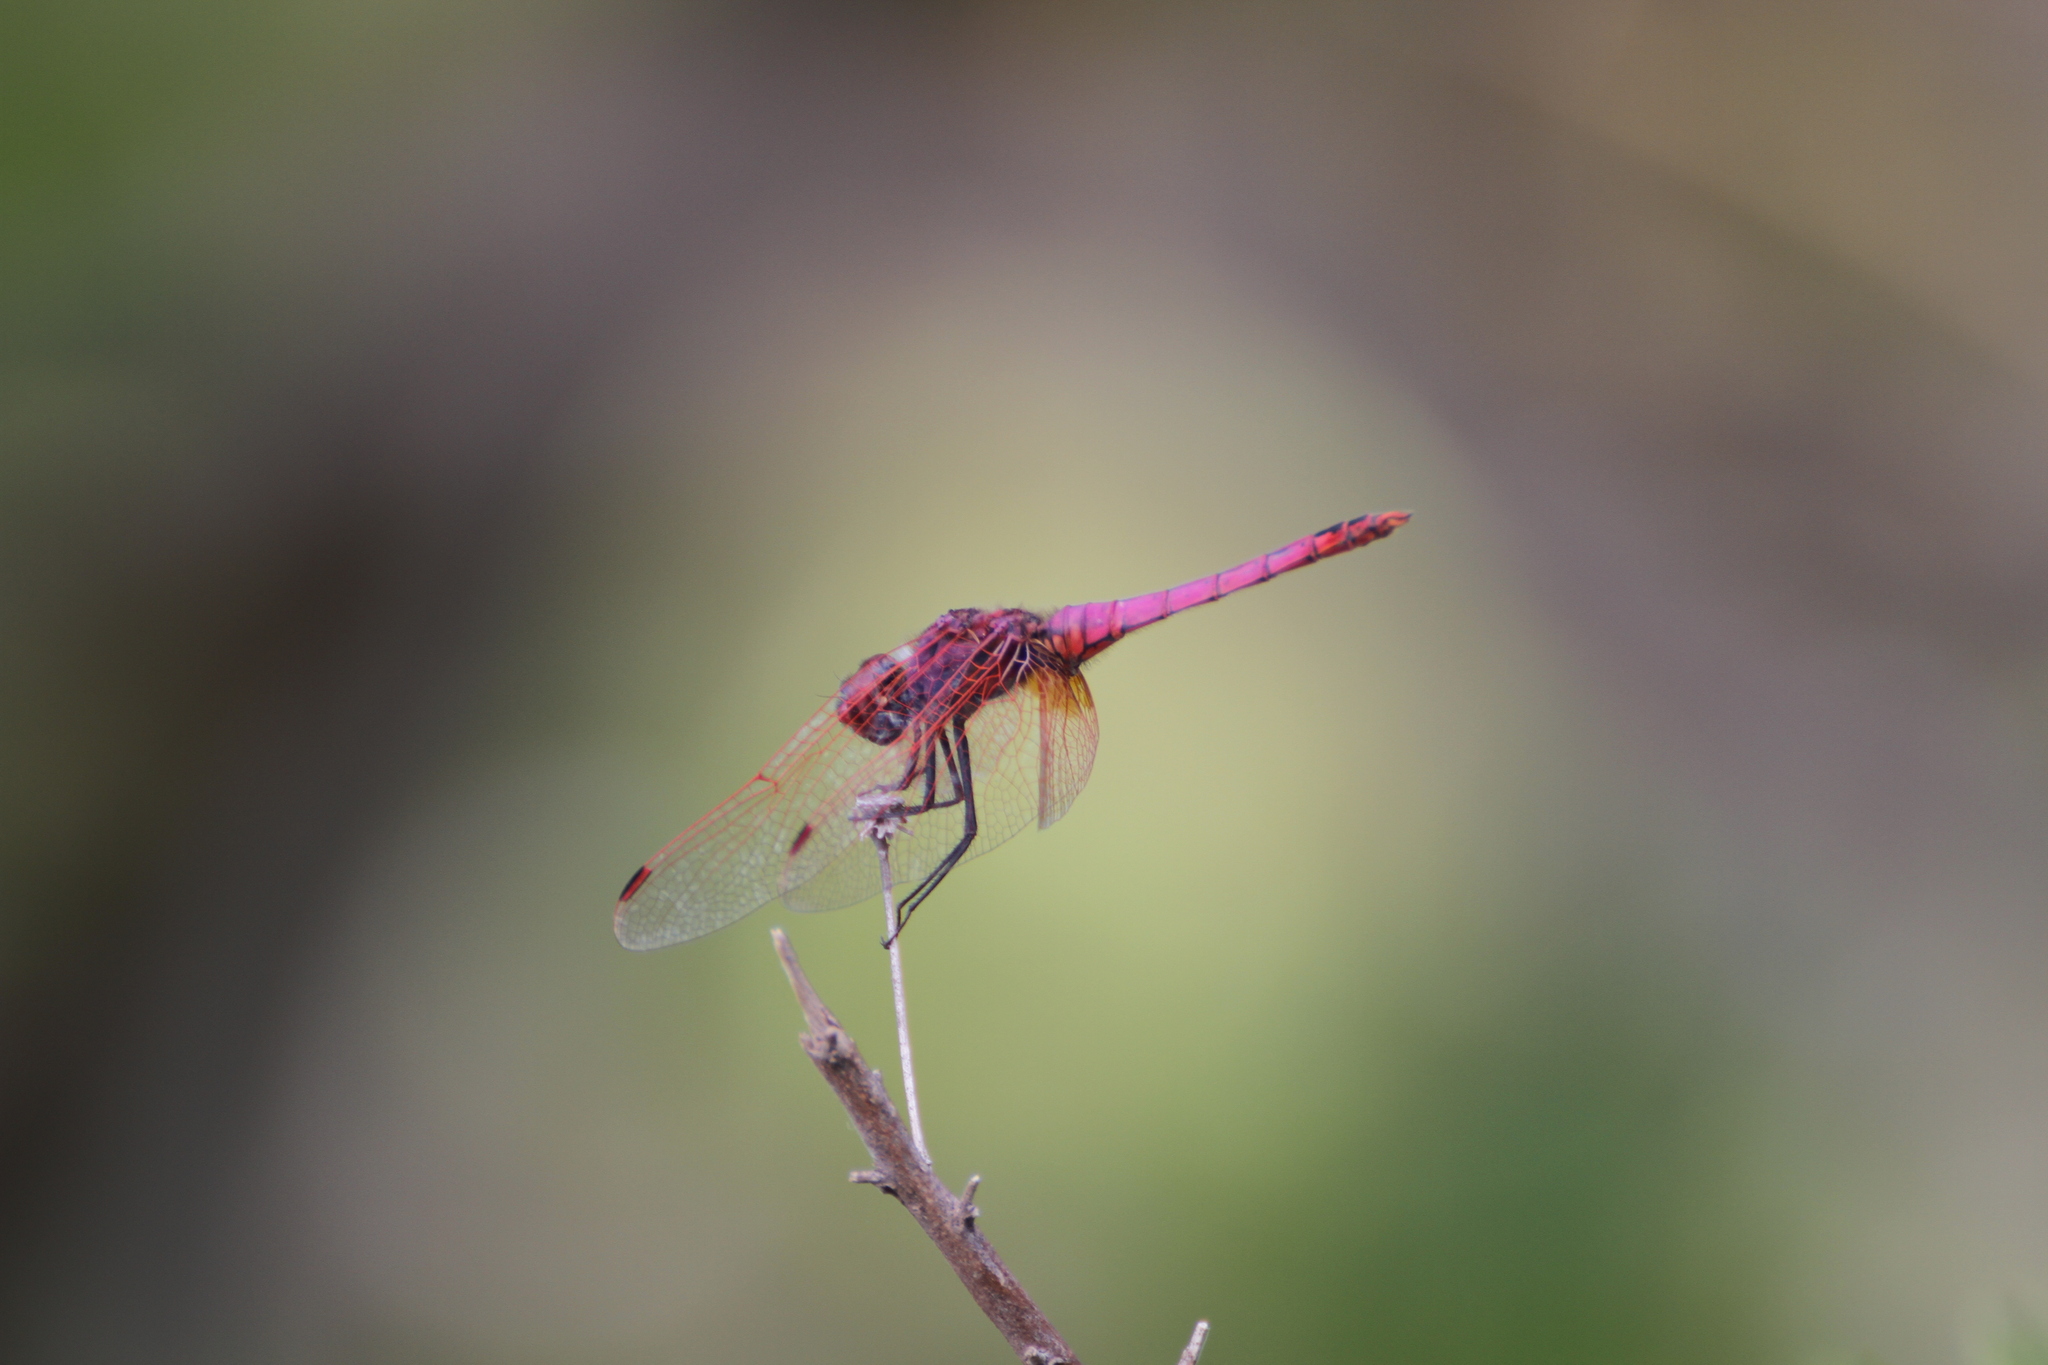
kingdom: Animalia
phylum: Arthropoda
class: Insecta
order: Odonata
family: Libellulidae
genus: Trithemis
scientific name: Trithemis annulata
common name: Violet dropwing
